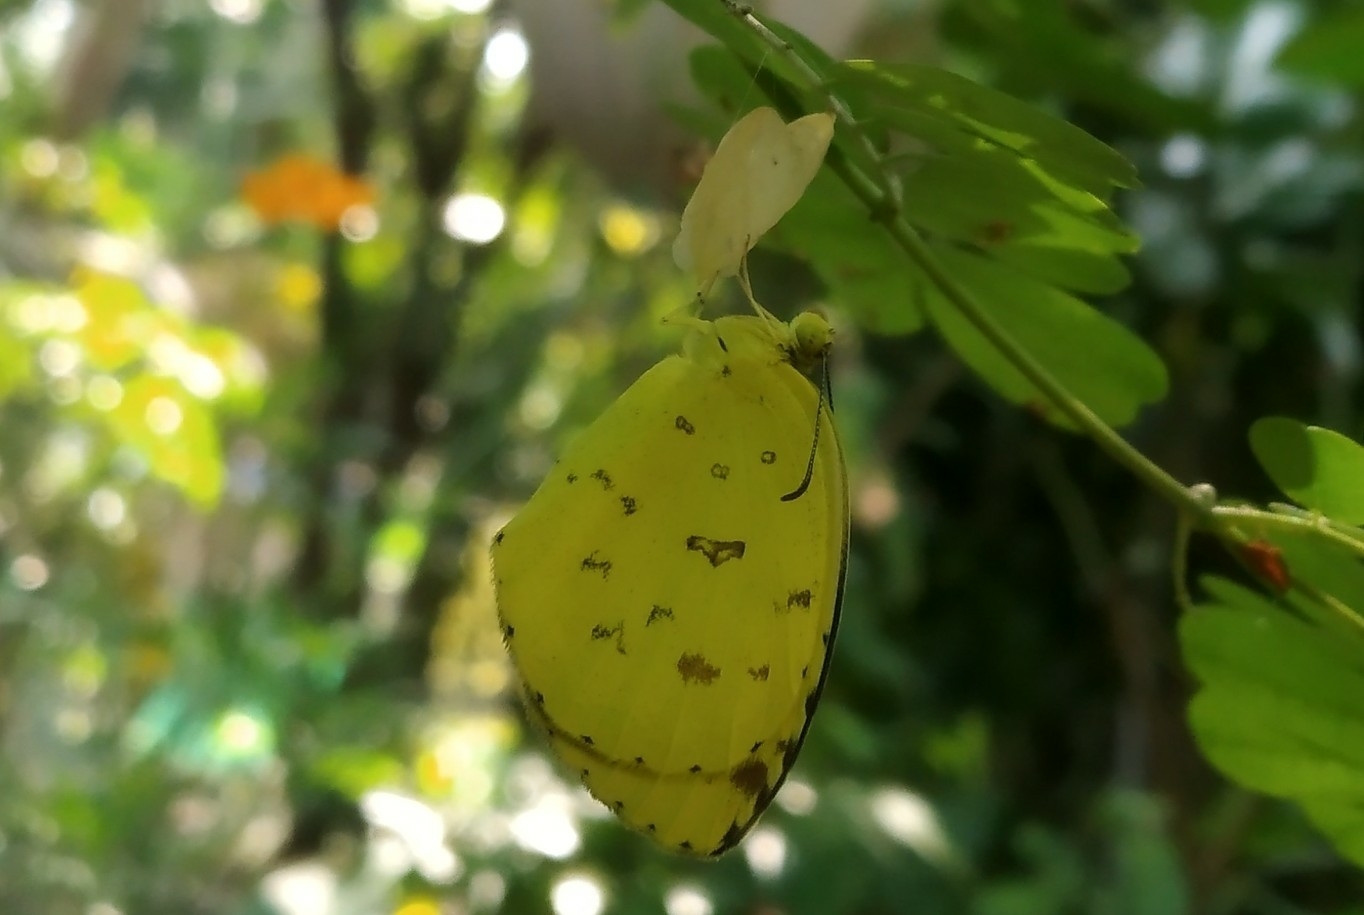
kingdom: Animalia
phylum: Arthropoda
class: Insecta
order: Lepidoptera
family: Pieridae
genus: Eurema
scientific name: Eurema hecabe
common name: Pale grass yellow
